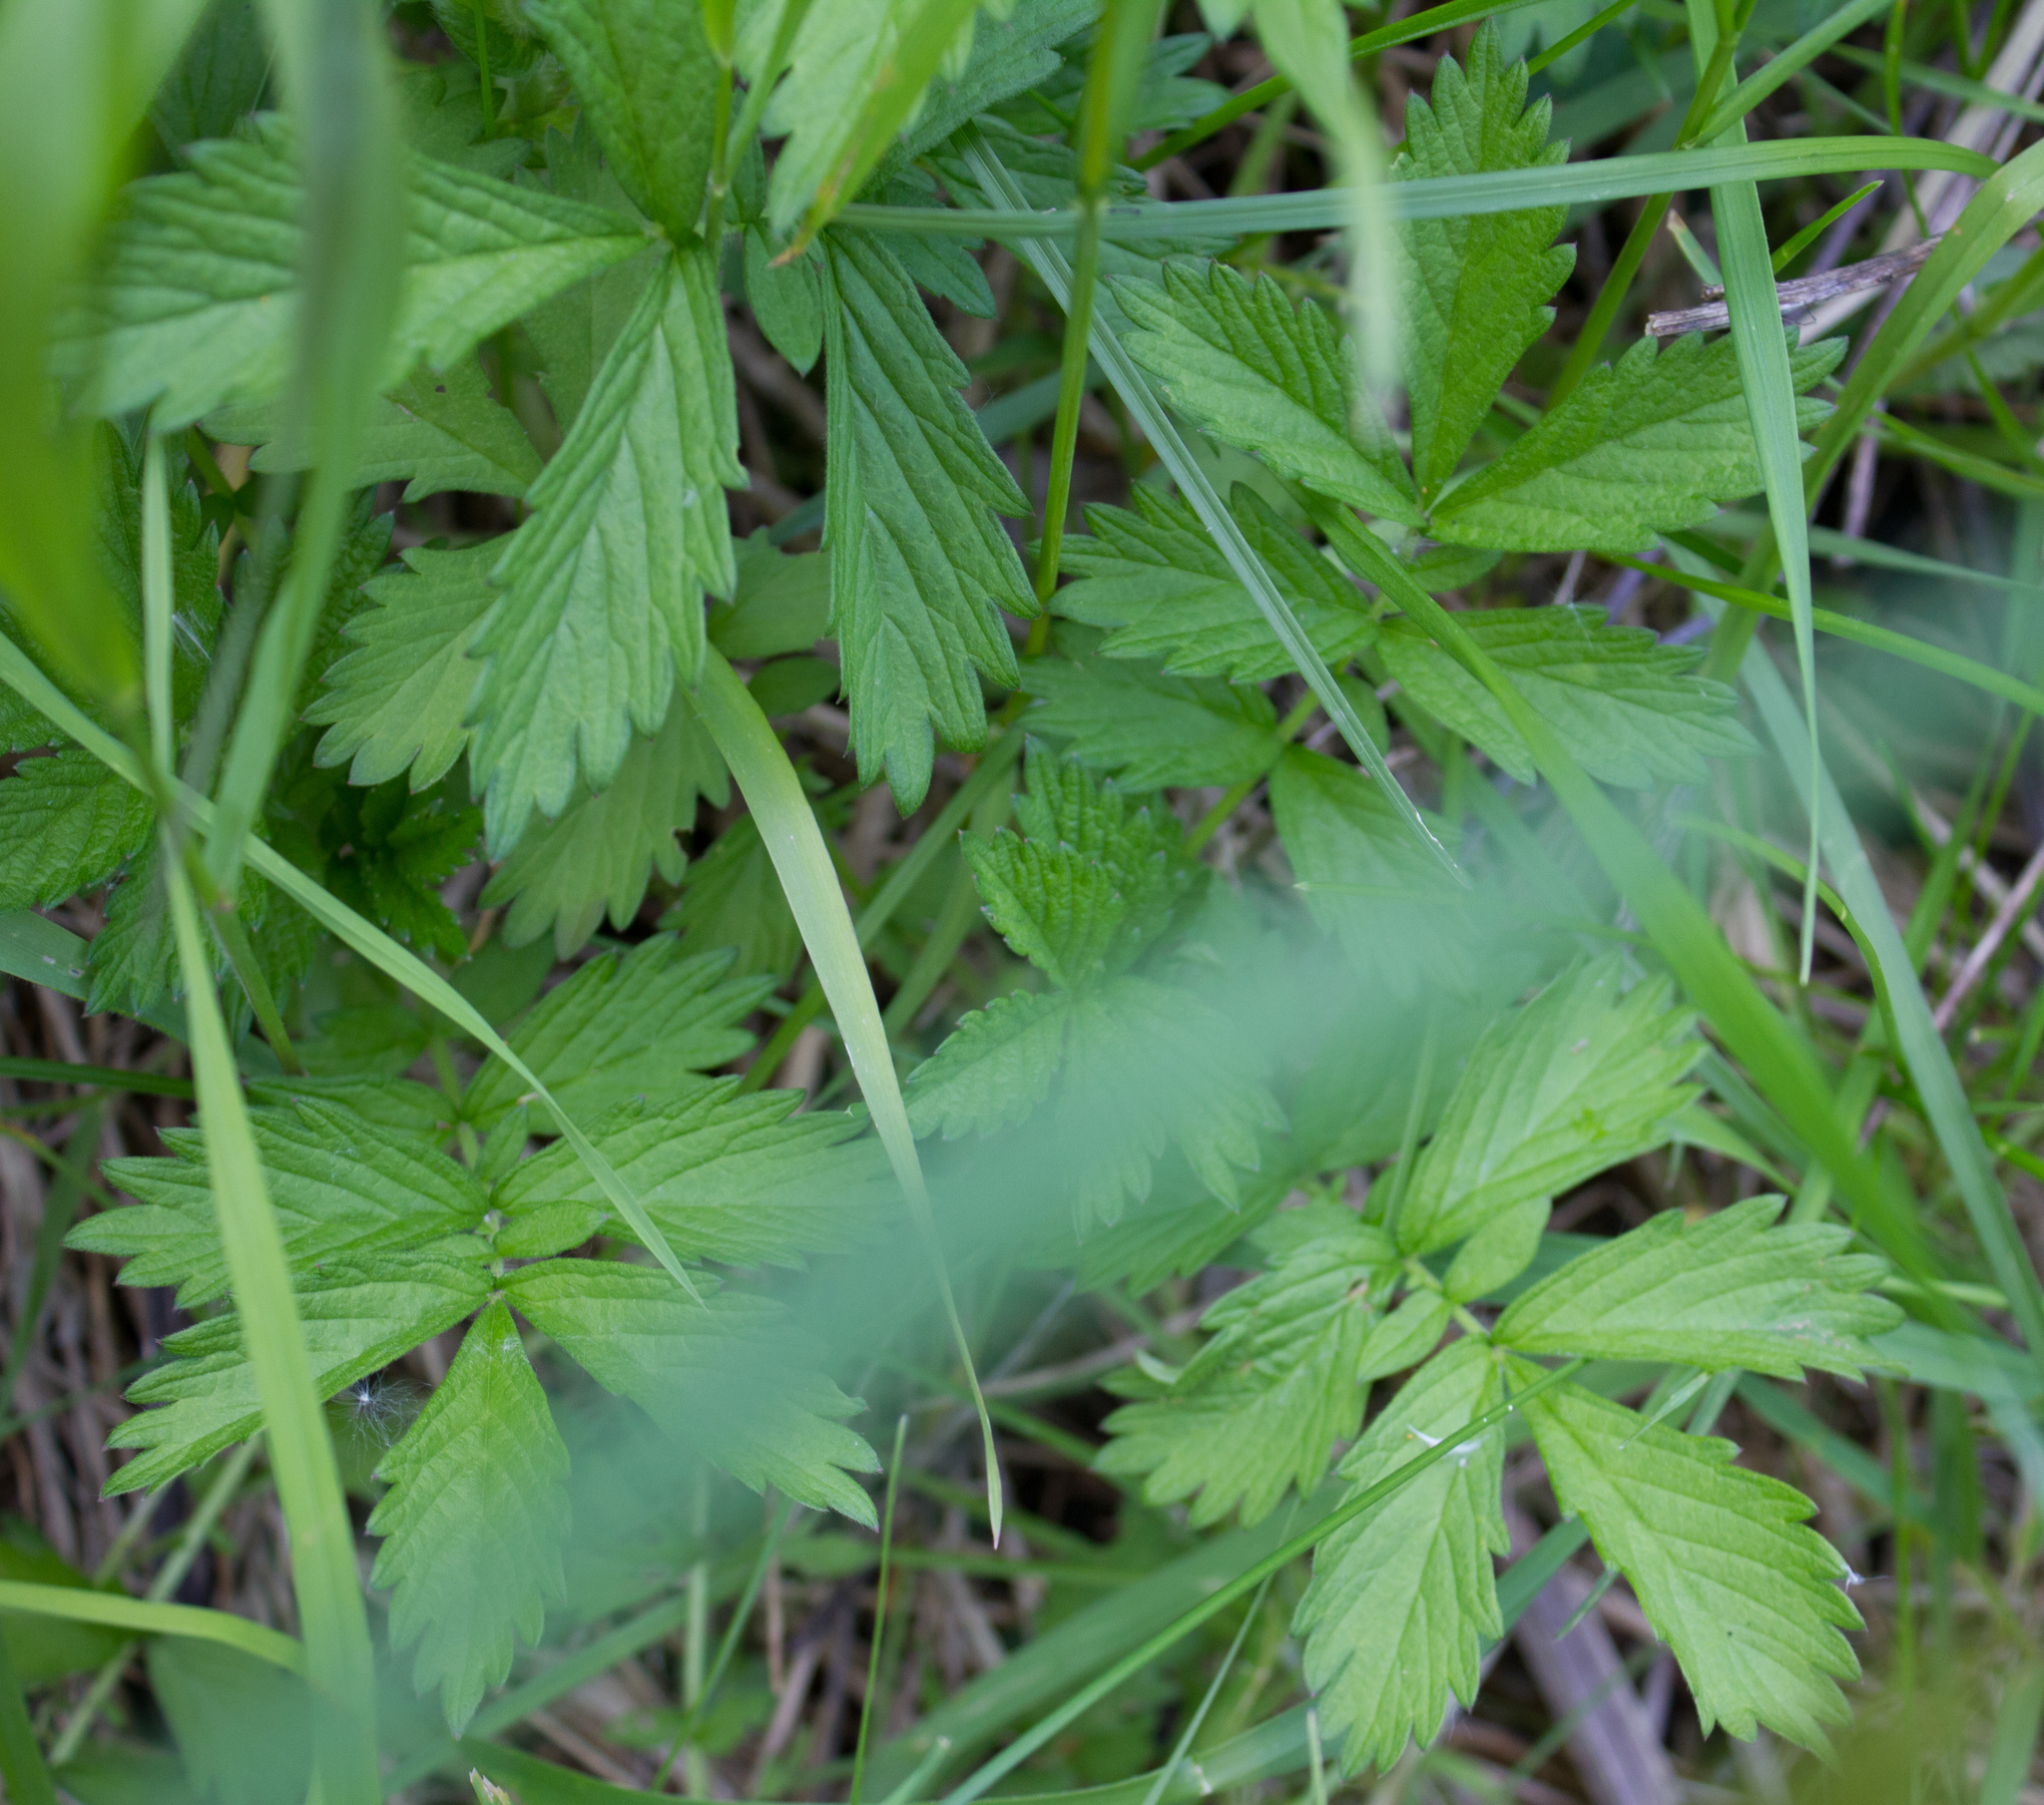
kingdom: Plantae
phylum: Tracheophyta
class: Magnoliopsida
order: Rosales
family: Rosaceae
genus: Agrimonia
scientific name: Agrimonia eupatoria
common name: Agrimony
